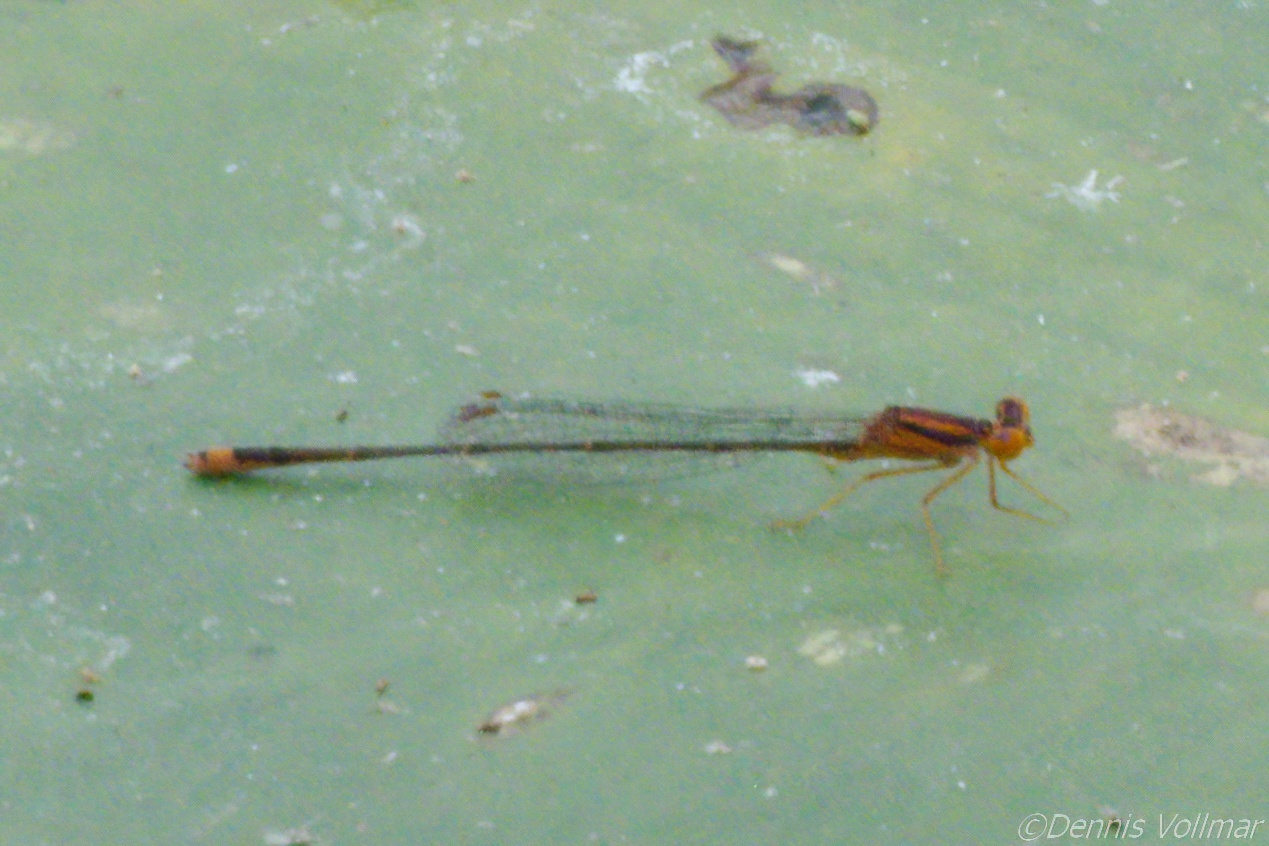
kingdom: Animalia
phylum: Arthropoda
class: Insecta
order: Odonata
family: Coenagrionidae
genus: Enallagma
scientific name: Enallagma pollutum
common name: Florida bluet
